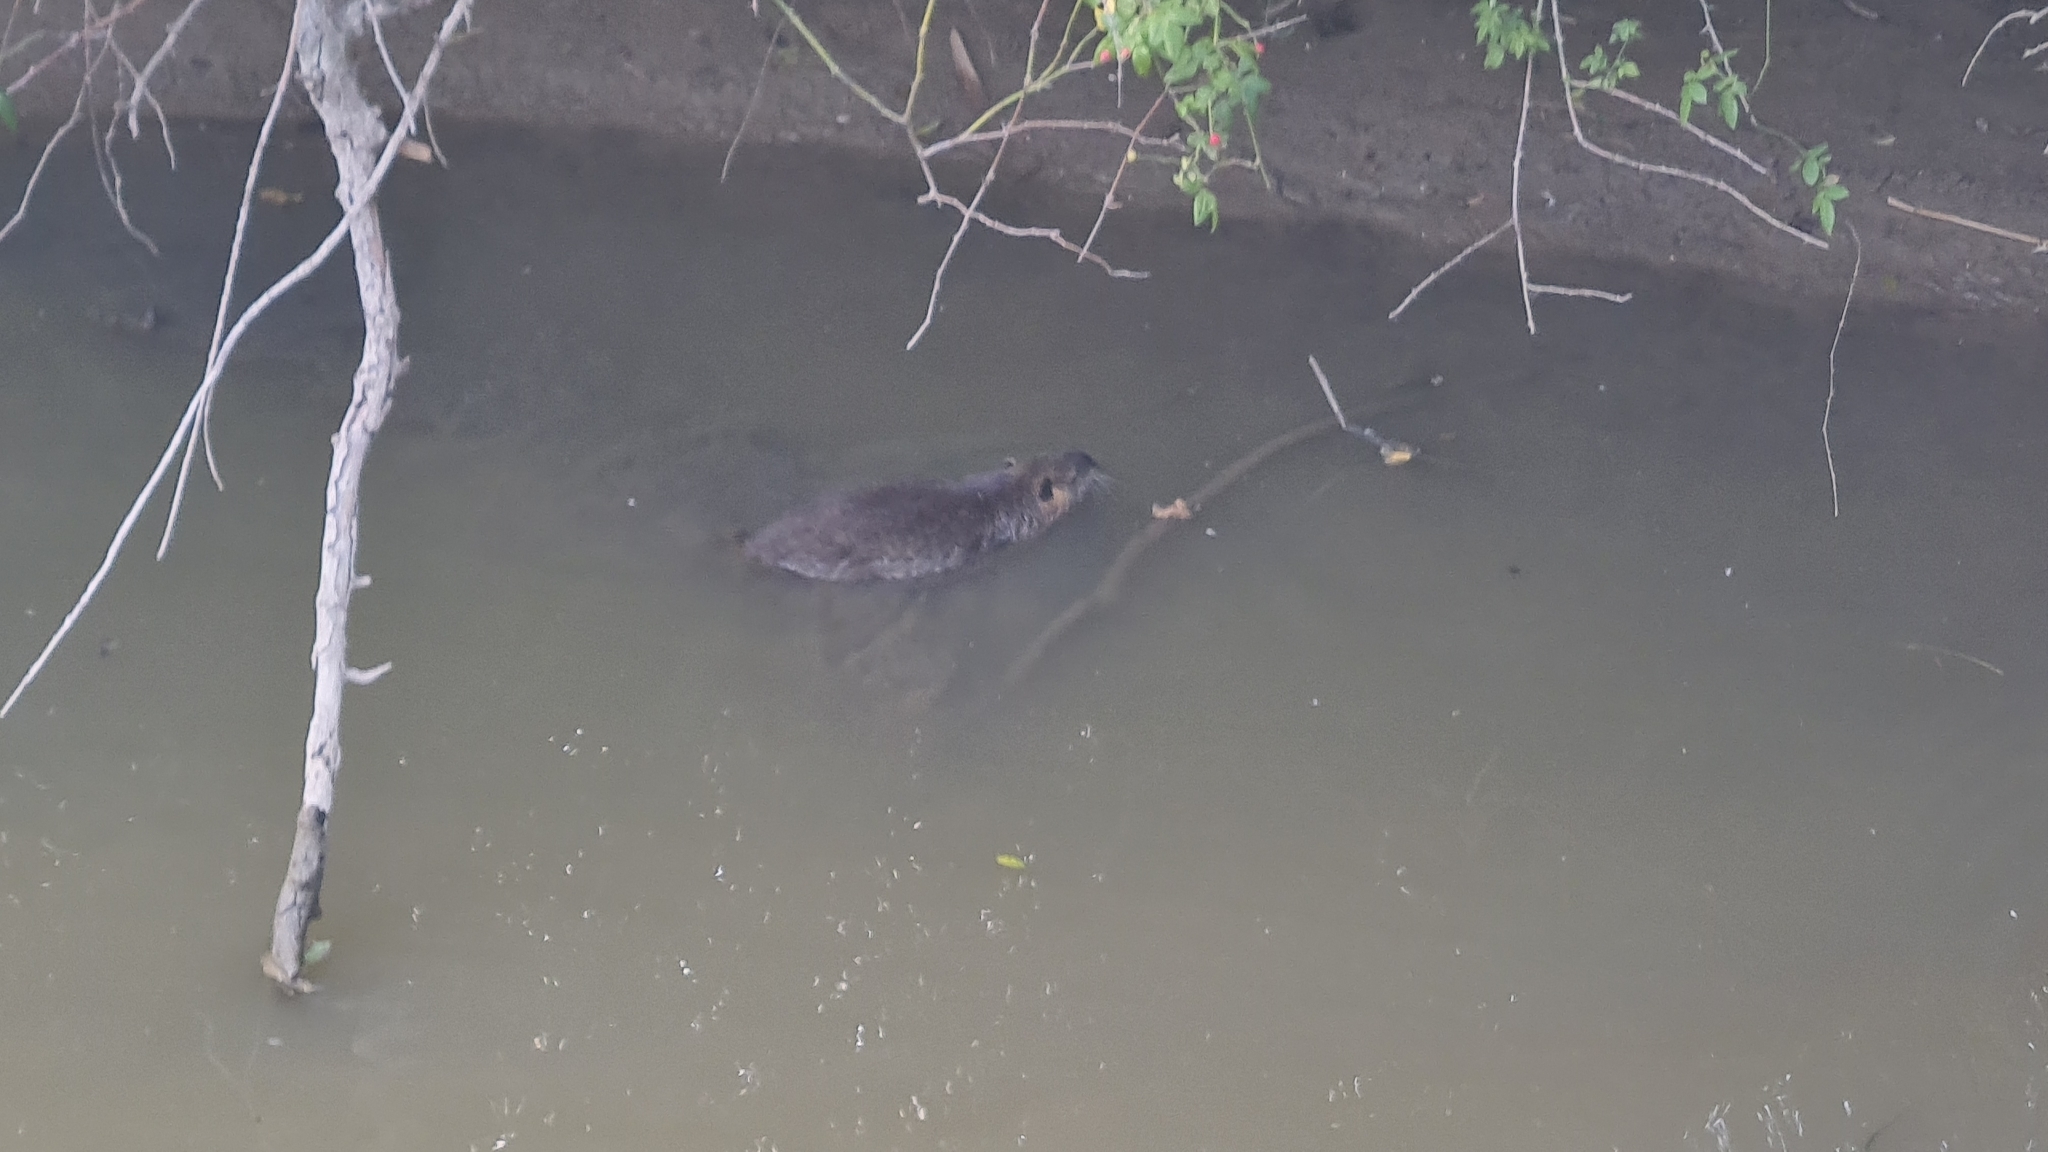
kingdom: Animalia
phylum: Chordata
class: Mammalia
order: Rodentia
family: Myocastoridae
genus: Myocastor
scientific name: Myocastor coypus
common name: Coypu
